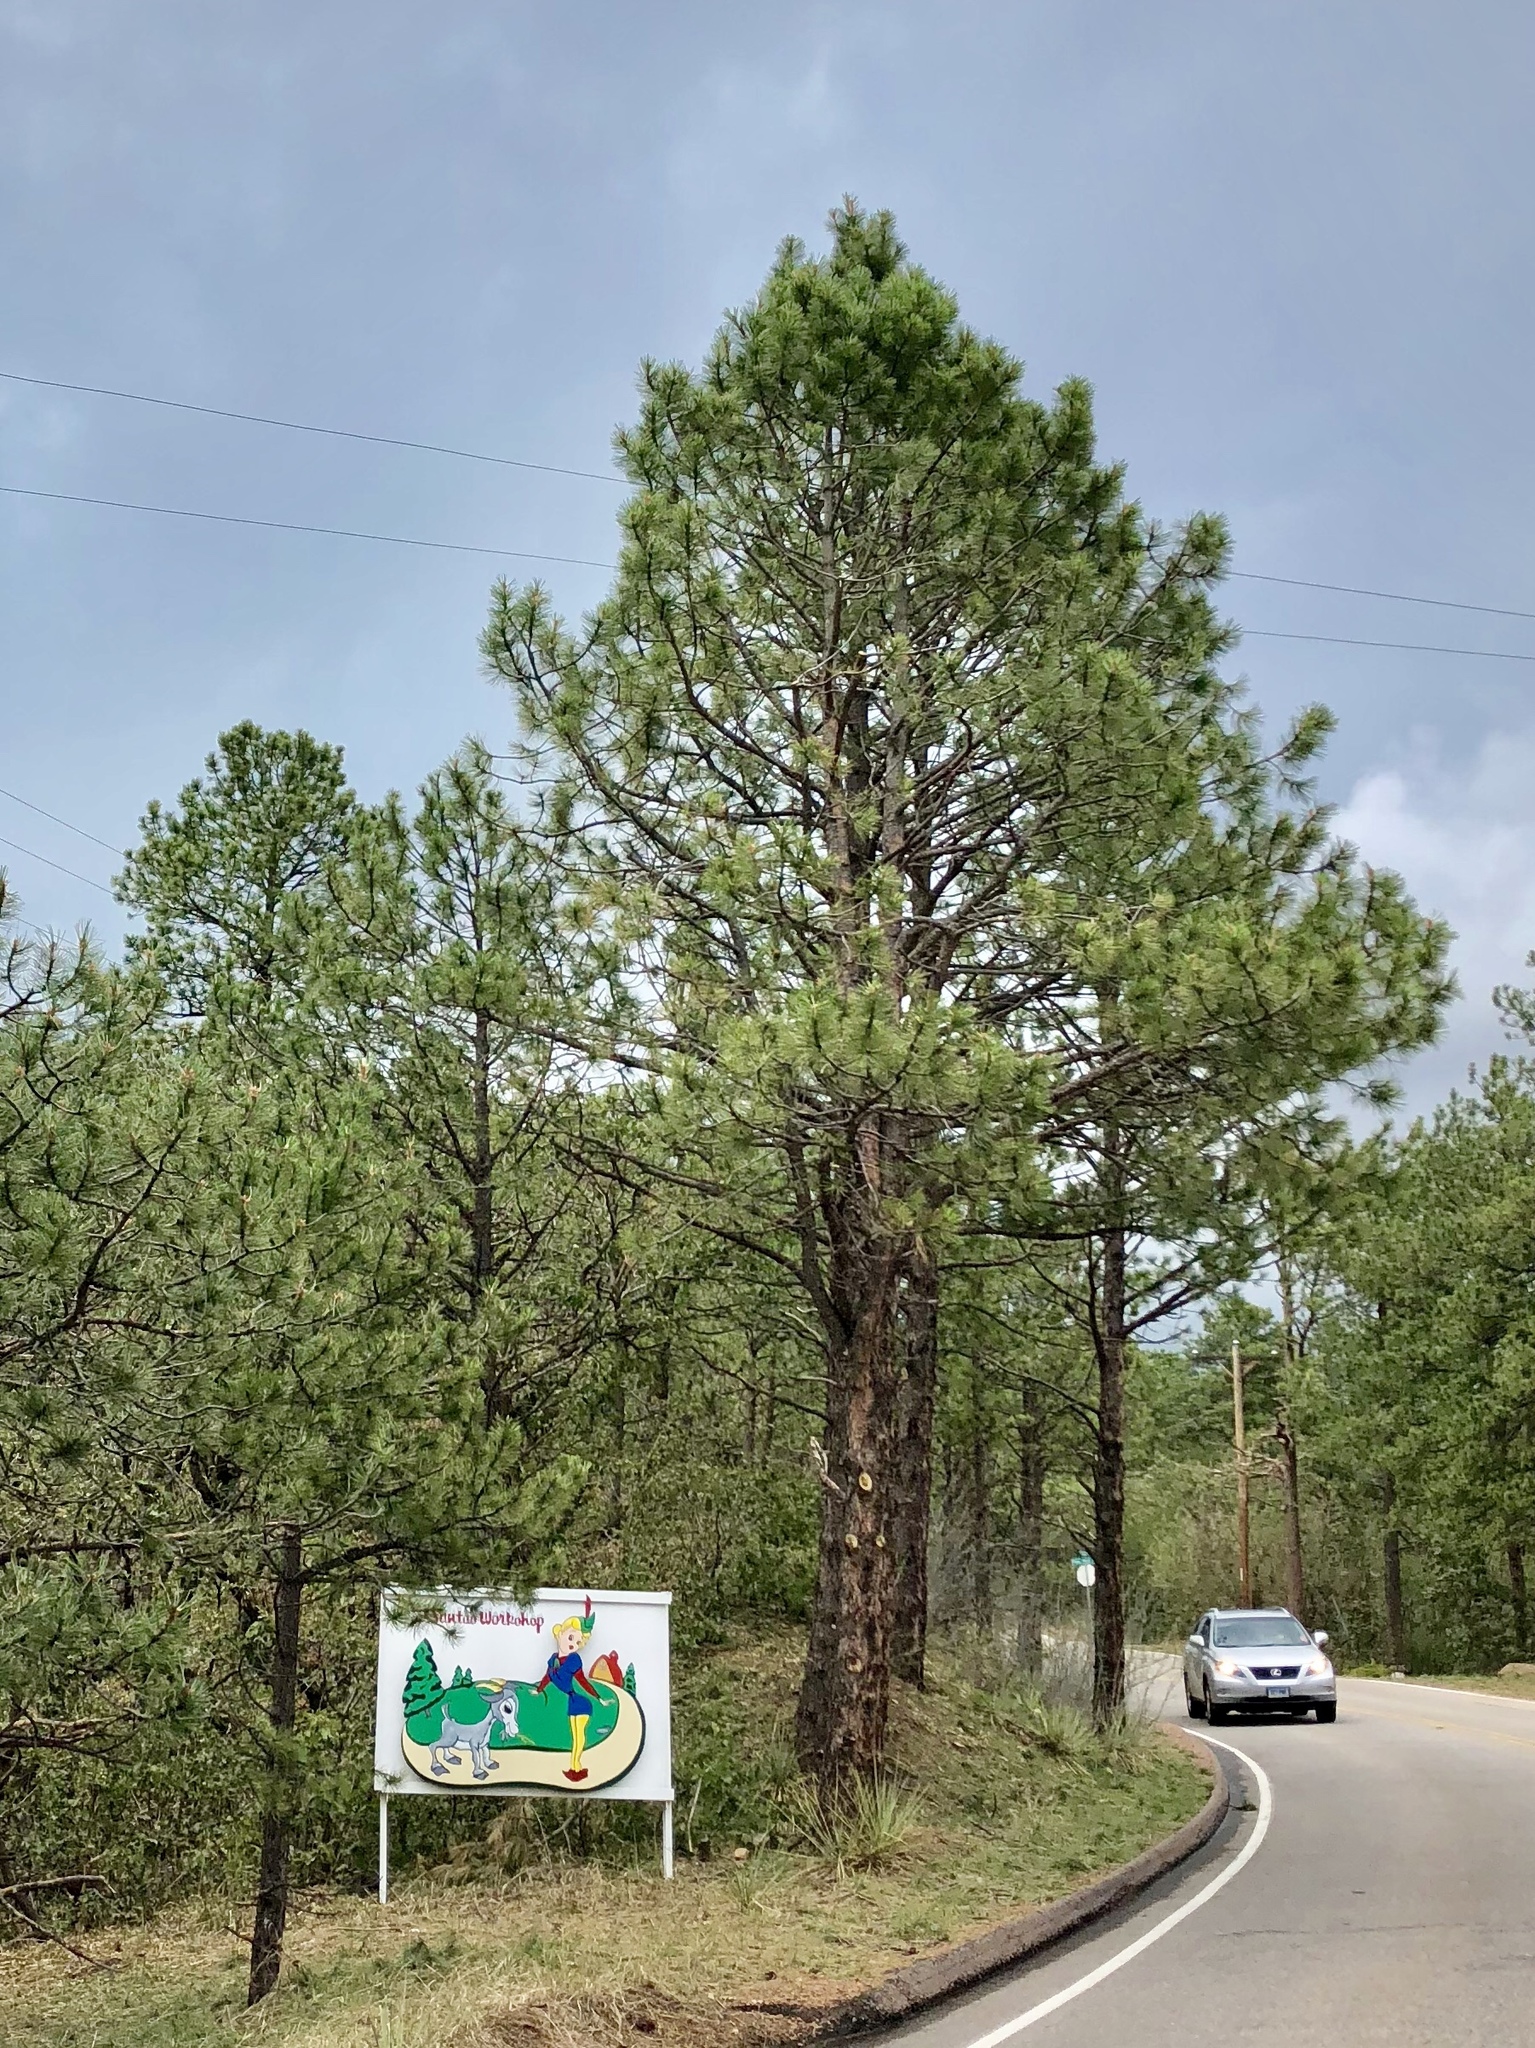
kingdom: Plantae
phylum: Tracheophyta
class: Pinopsida
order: Pinales
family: Pinaceae
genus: Pinus
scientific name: Pinus ponderosa
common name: Western yellow-pine
